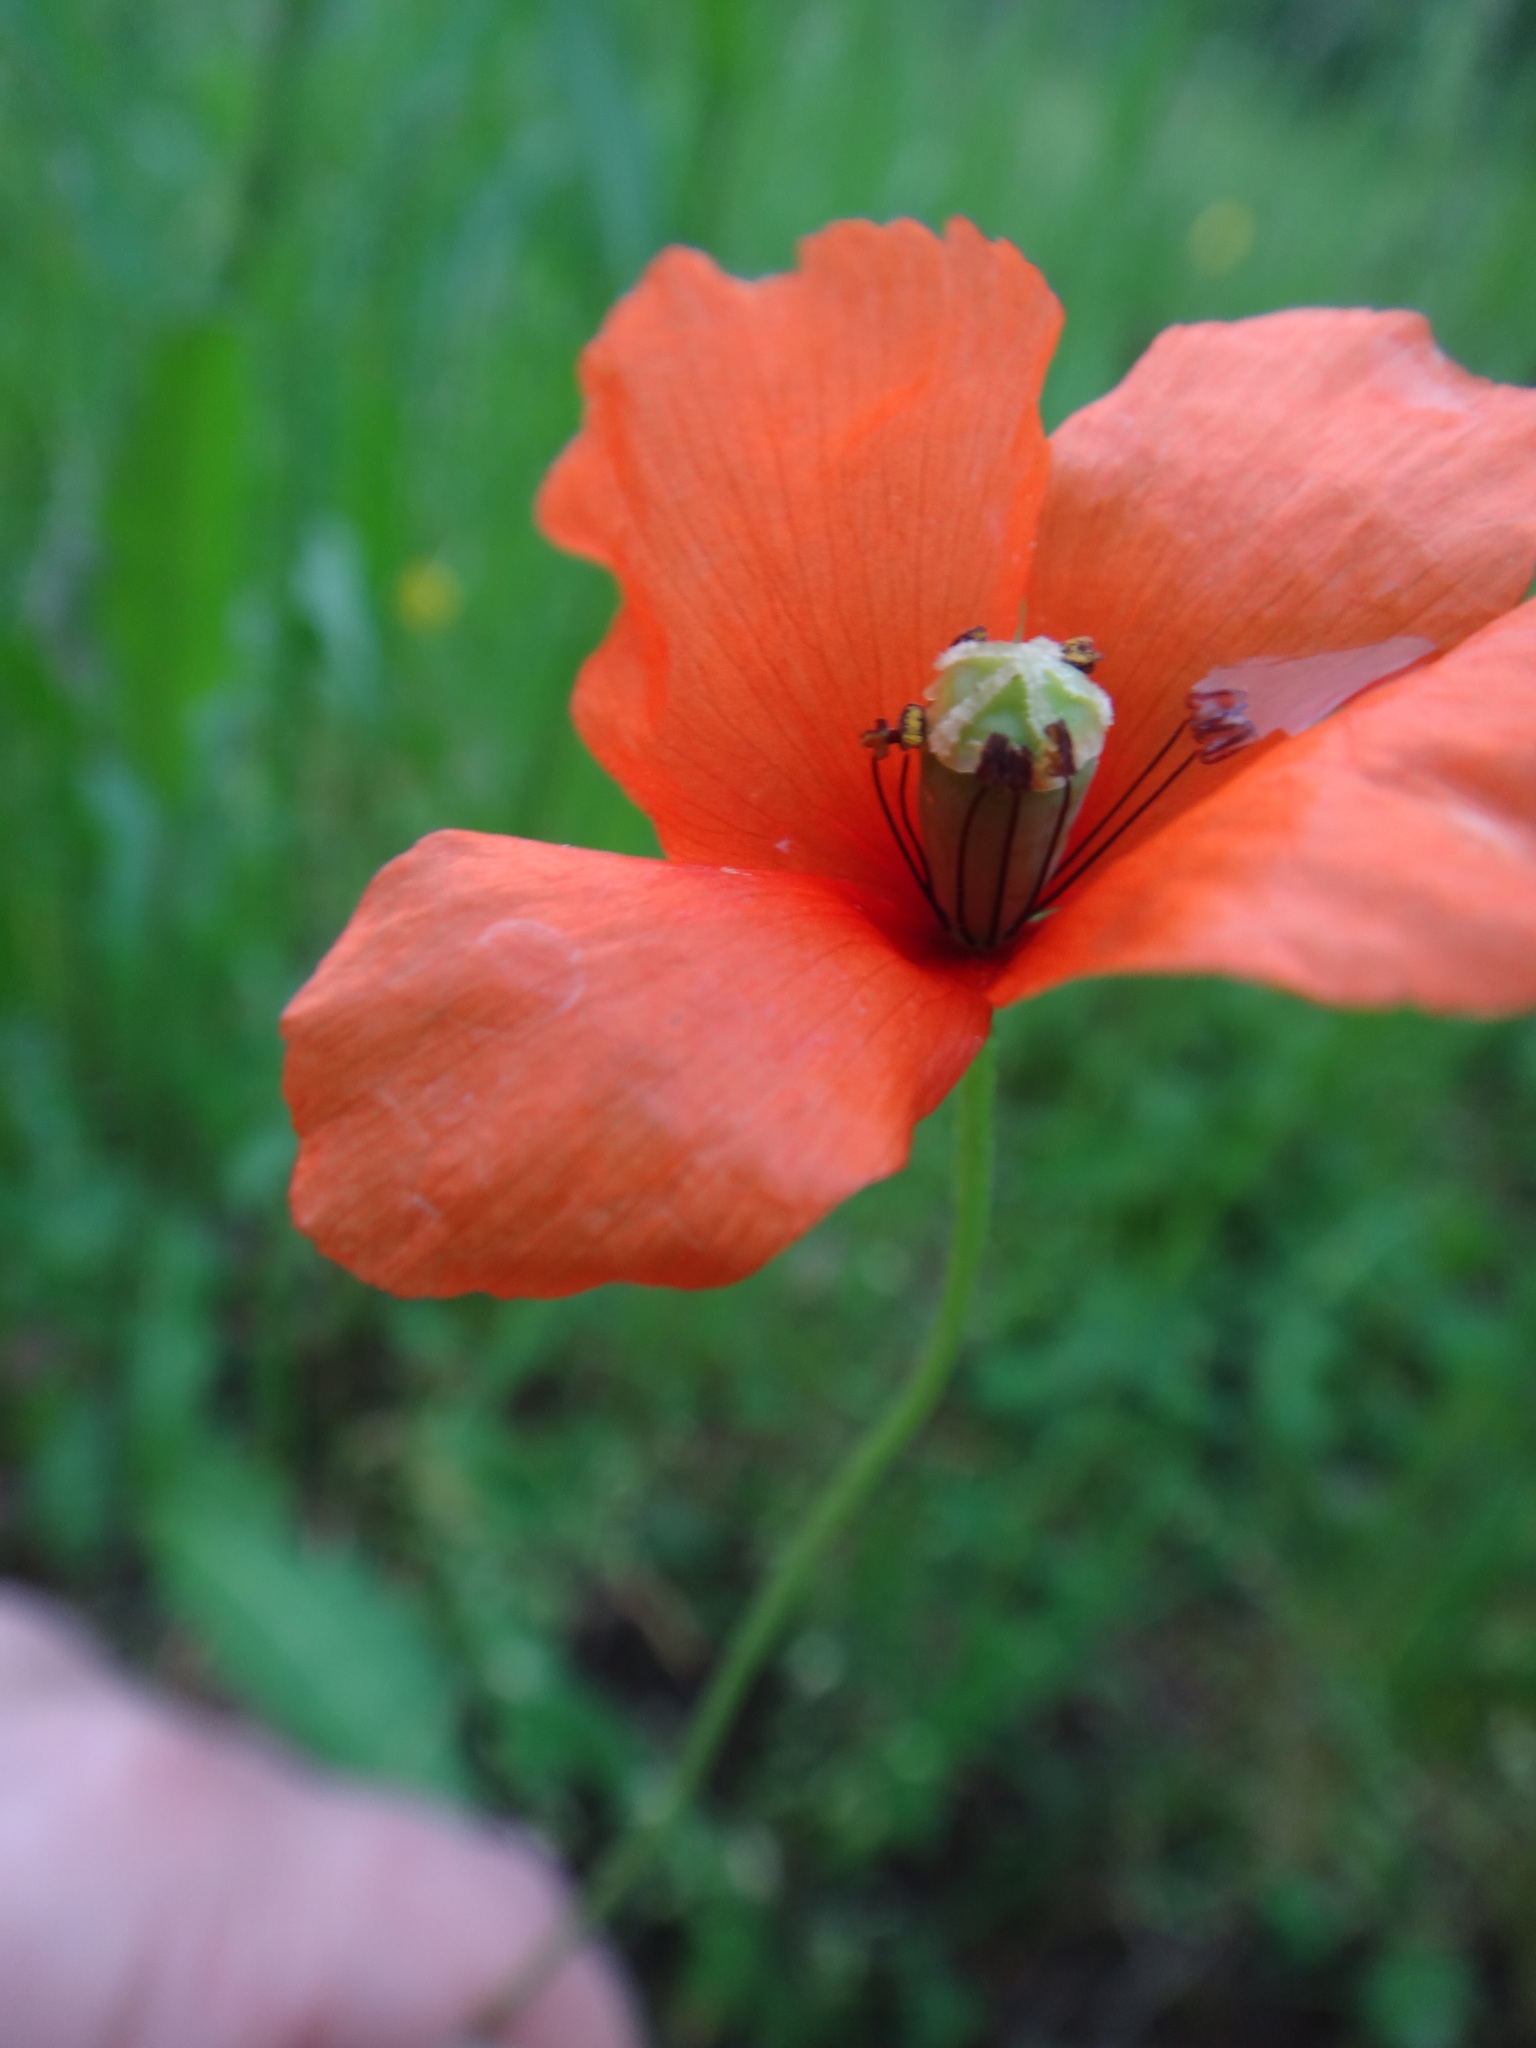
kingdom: Plantae
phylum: Tracheophyta
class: Magnoliopsida
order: Ranunculales
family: Papaveraceae
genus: Papaver
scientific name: Papaver dubium
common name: Long-headed poppy
